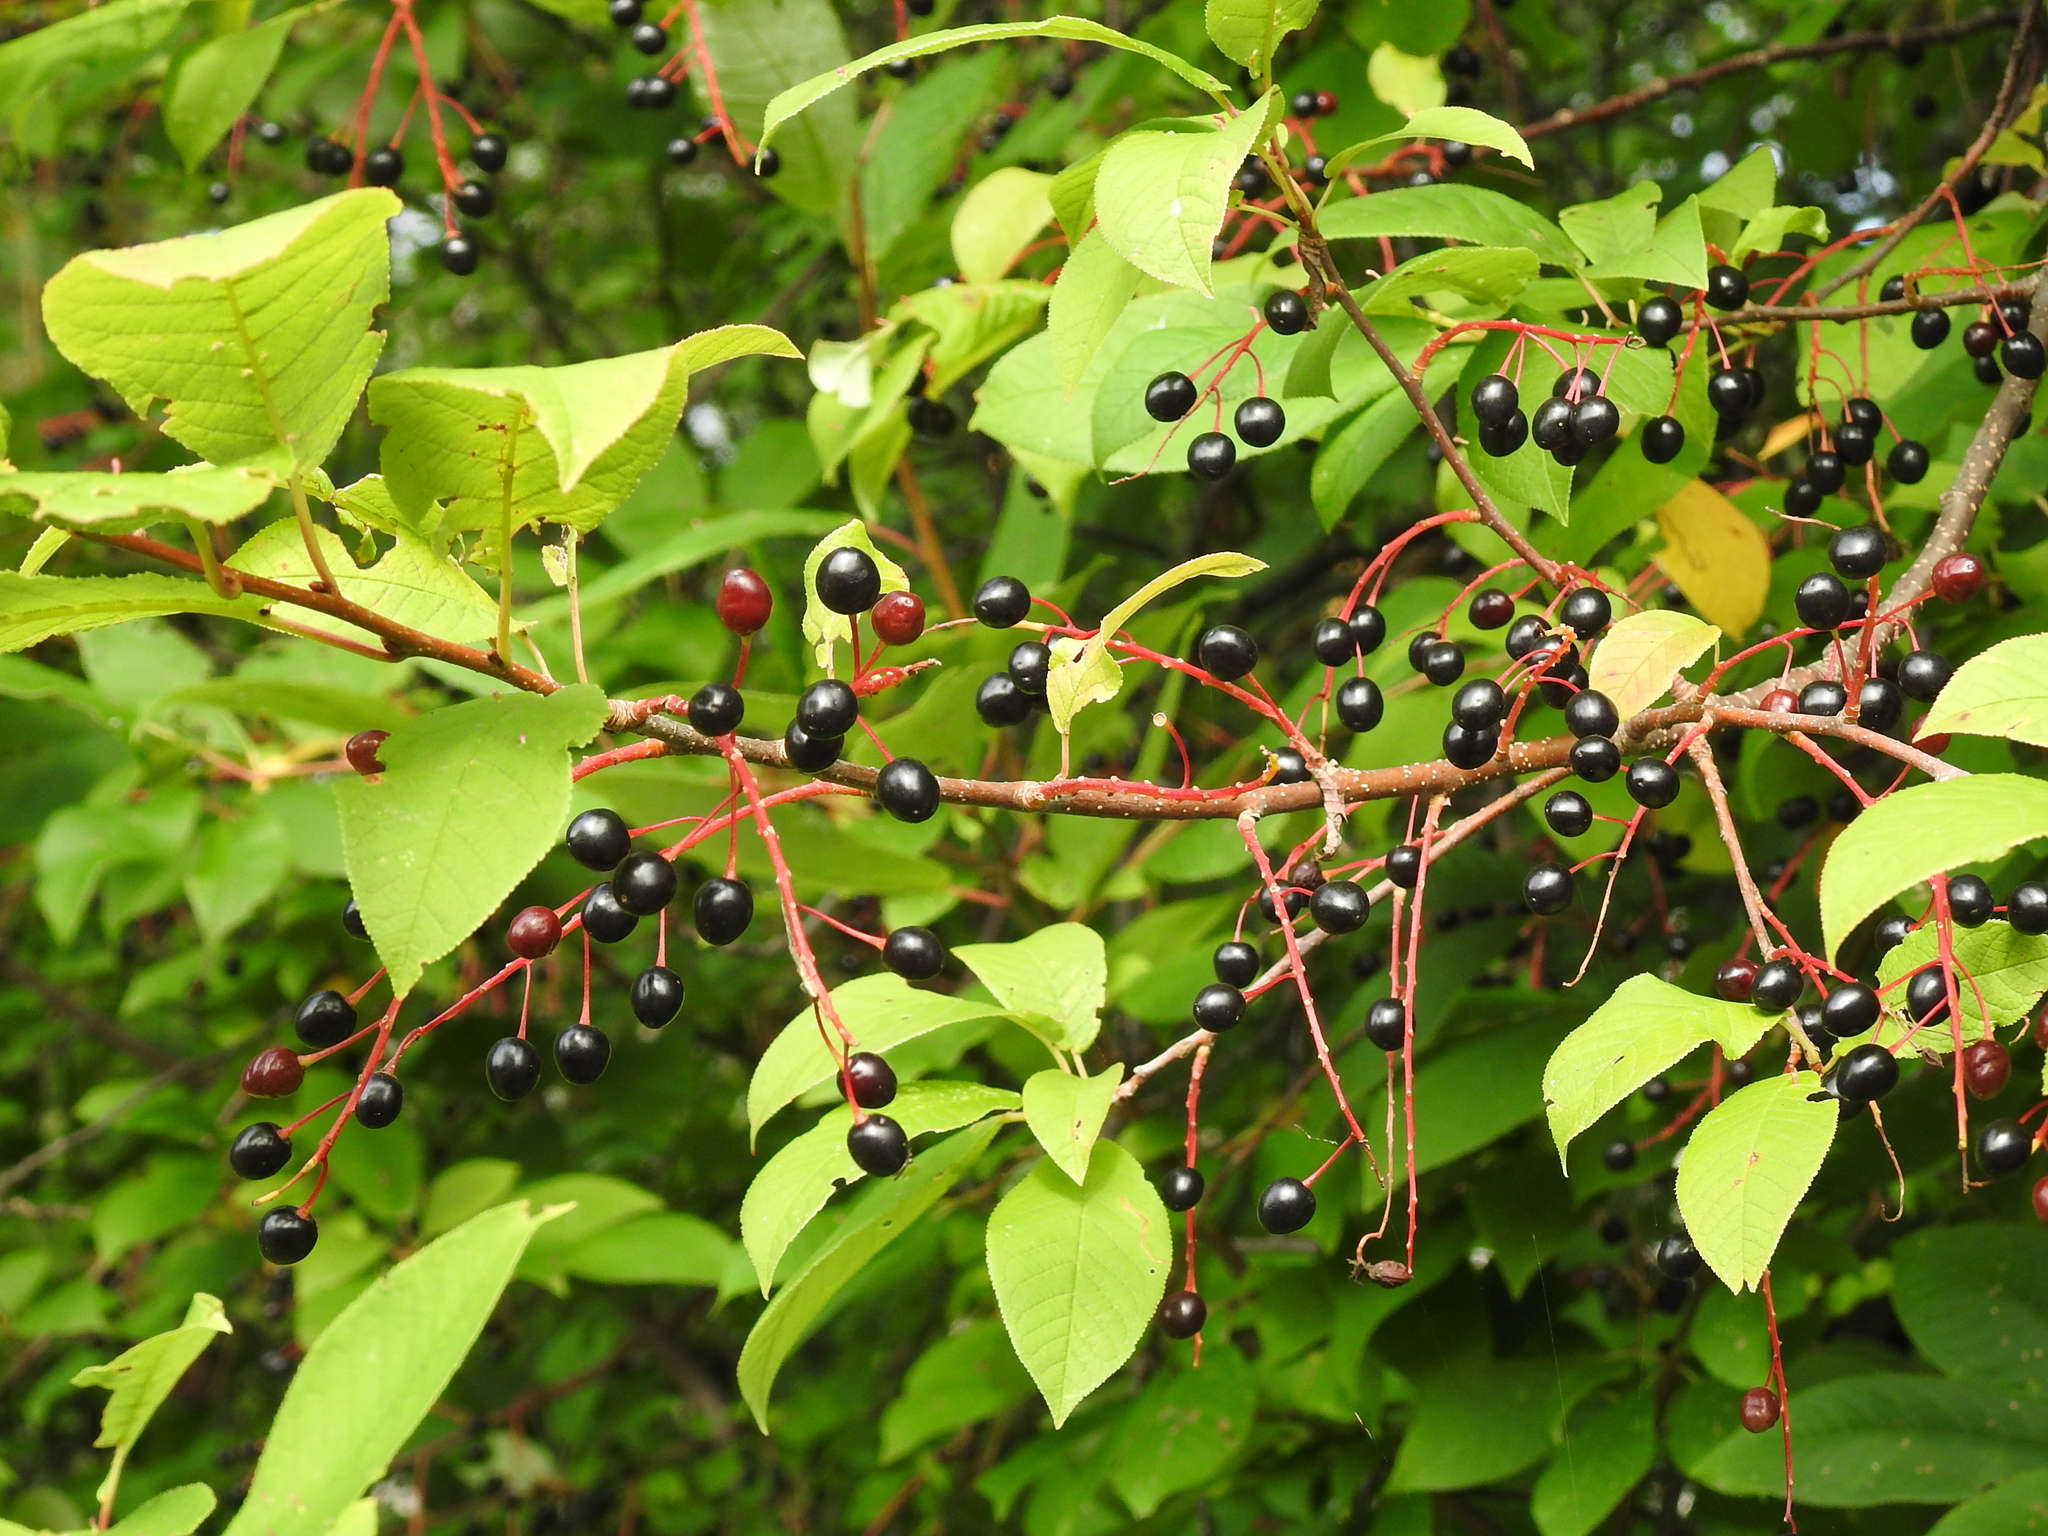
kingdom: Plantae
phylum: Tracheophyta
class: Magnoliopsida
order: Rosales
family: Rosaceae
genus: Prunus
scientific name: Prunus padus
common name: Bird cherry
